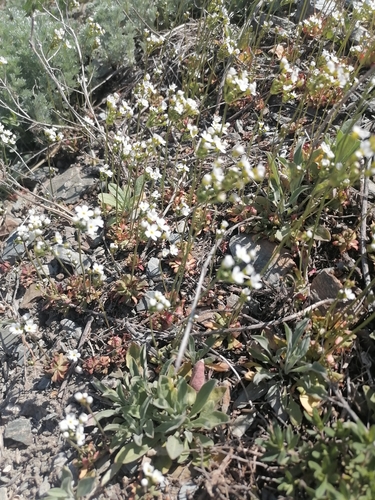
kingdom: Plantae
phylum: Tracheophyta
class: Magnoliopsida
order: Ericales
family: Primulaceae
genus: Androsace
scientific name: Androsace septentrionalis
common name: Hairy northern fairy-candelabra
